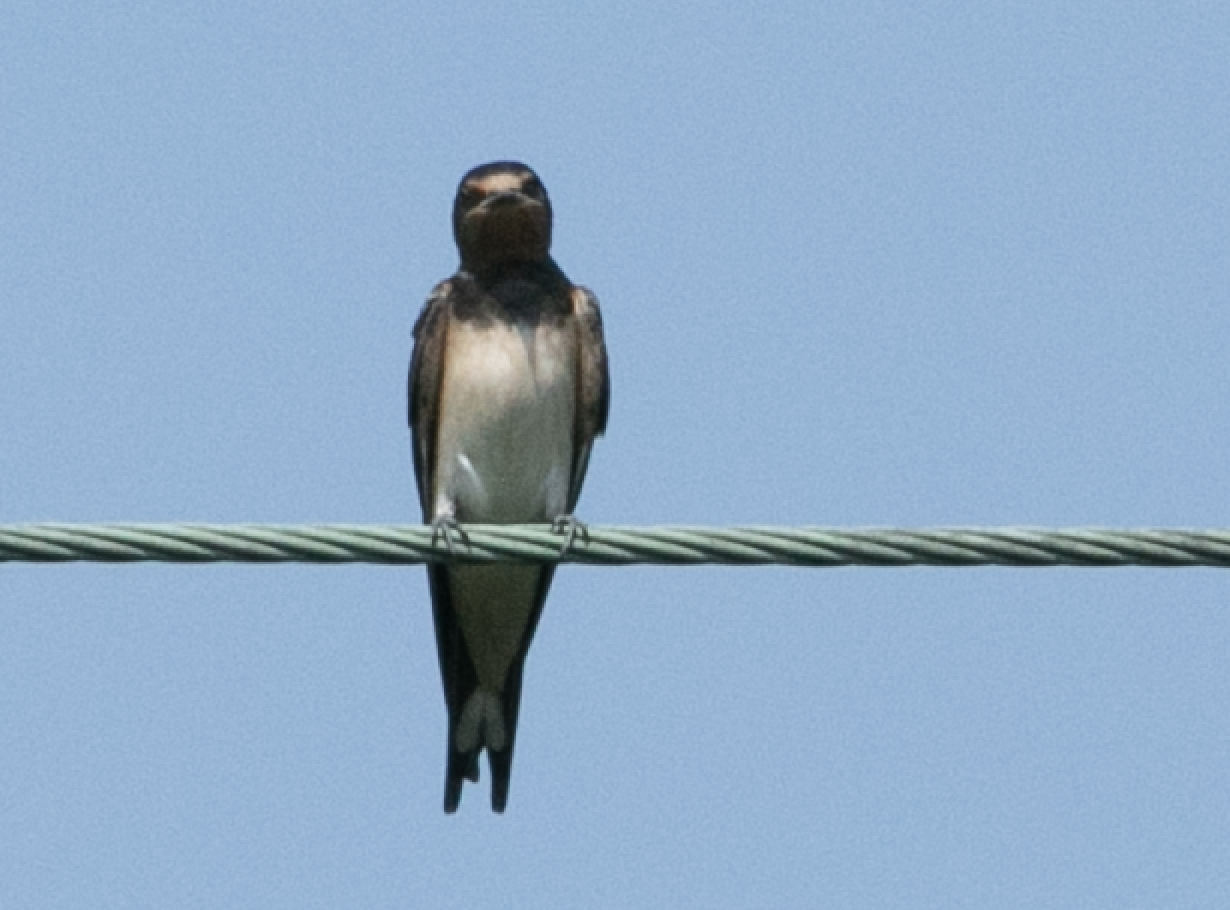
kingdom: Animalia
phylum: Chordata
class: Aves
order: Passeriformes
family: Hirundinidae
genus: Hirundo
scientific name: Hirundo rustica
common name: Barn swallow
